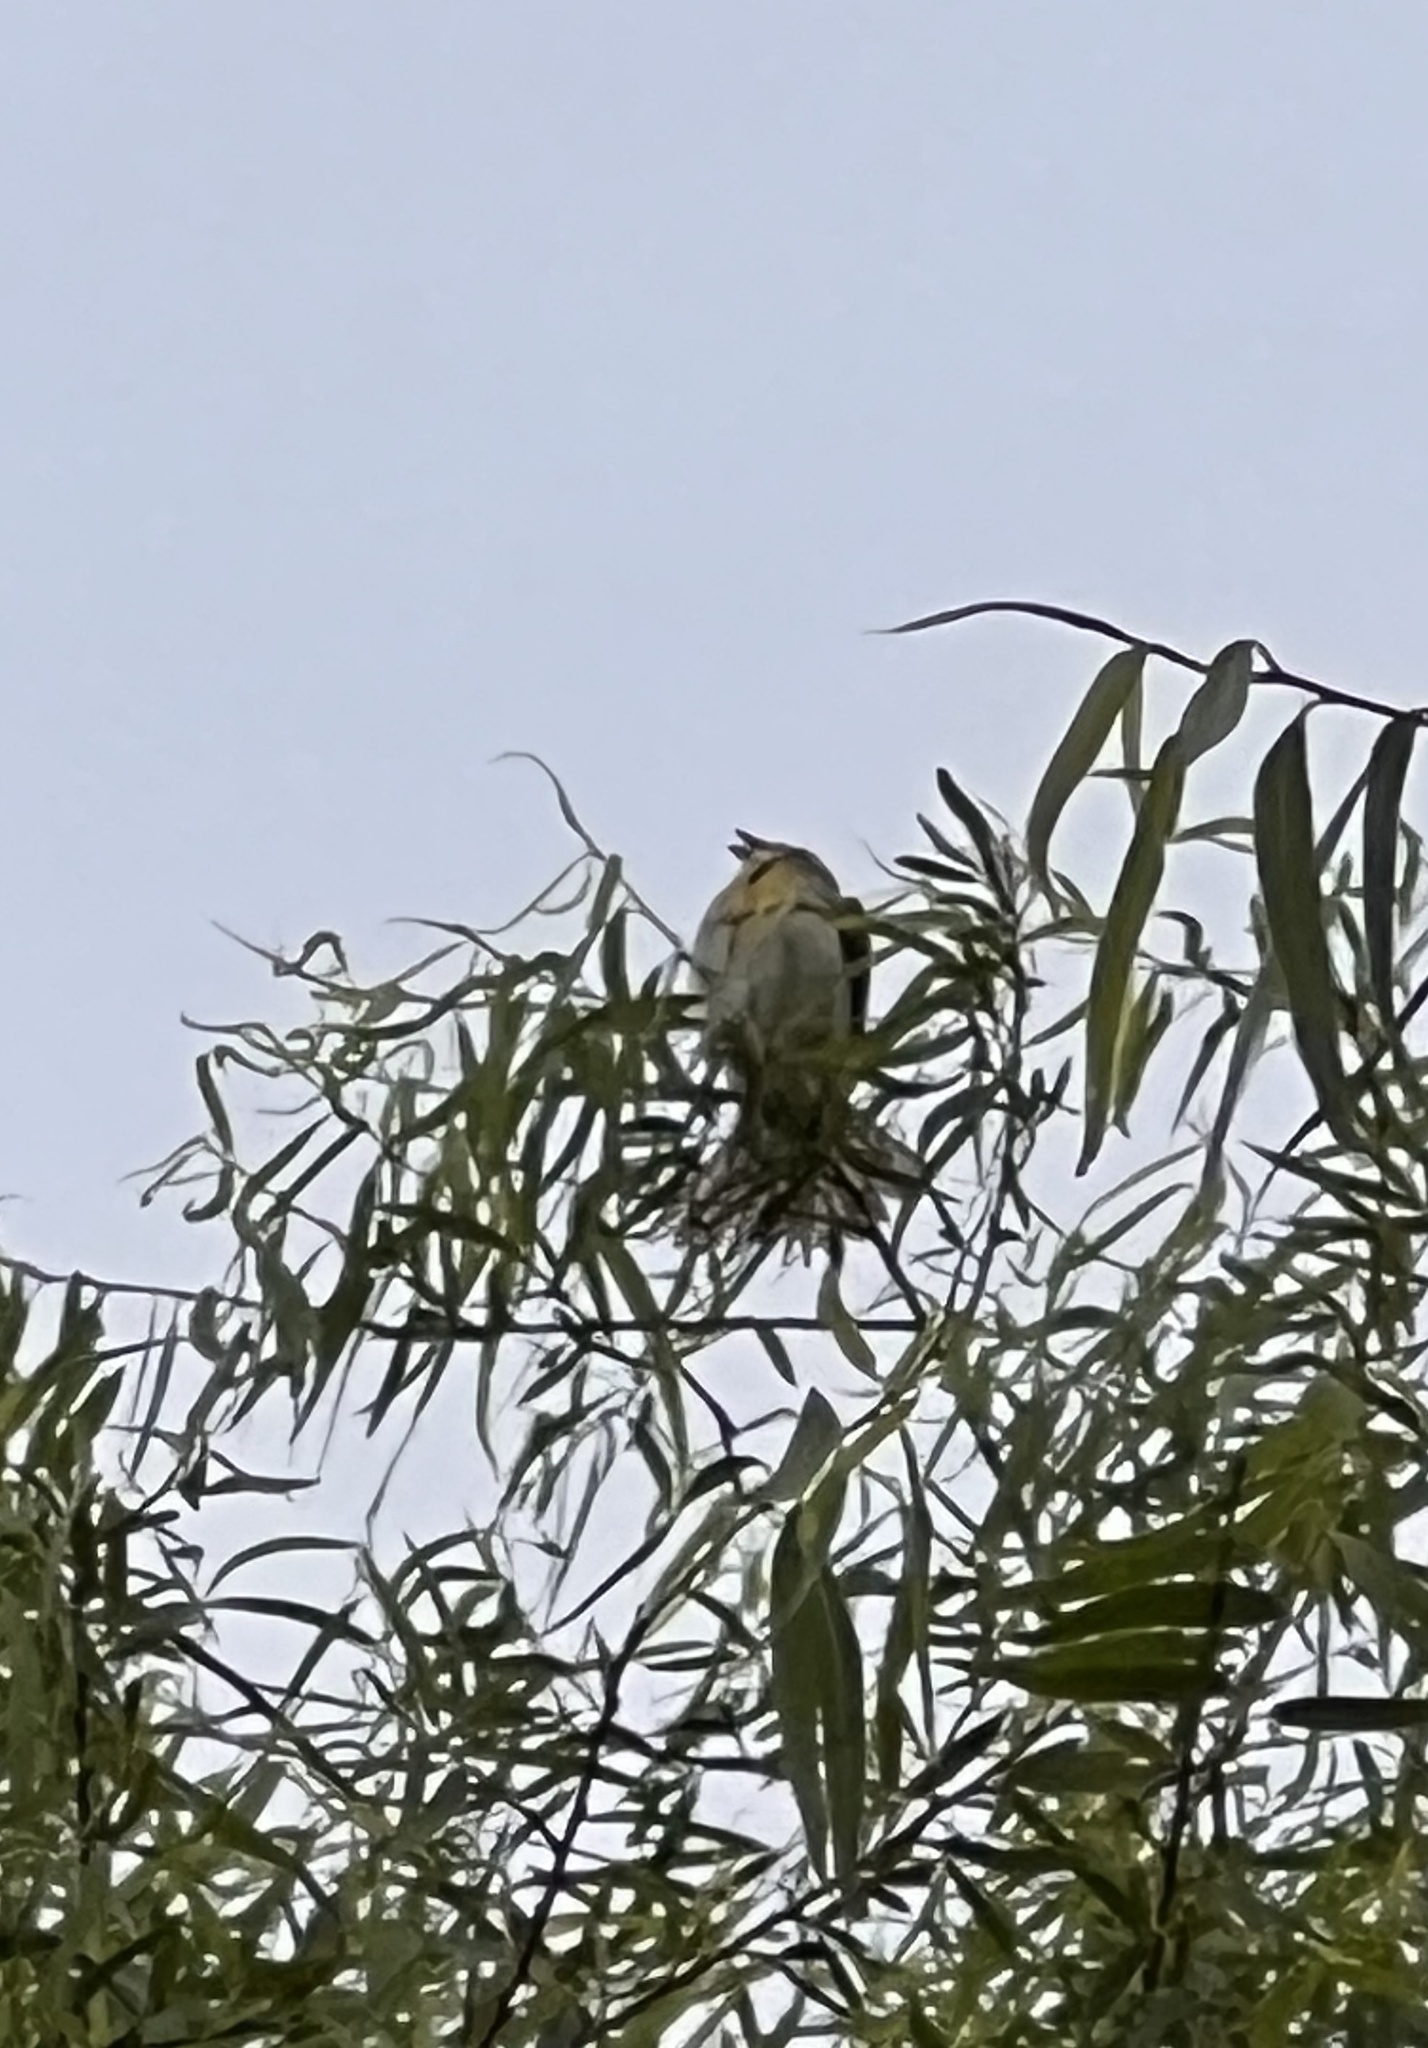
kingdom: Animalia
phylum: Chordata
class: Aves
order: Passeriformes
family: Cardinalidae
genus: Spiza
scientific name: Spiza americana
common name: Dickcissel
